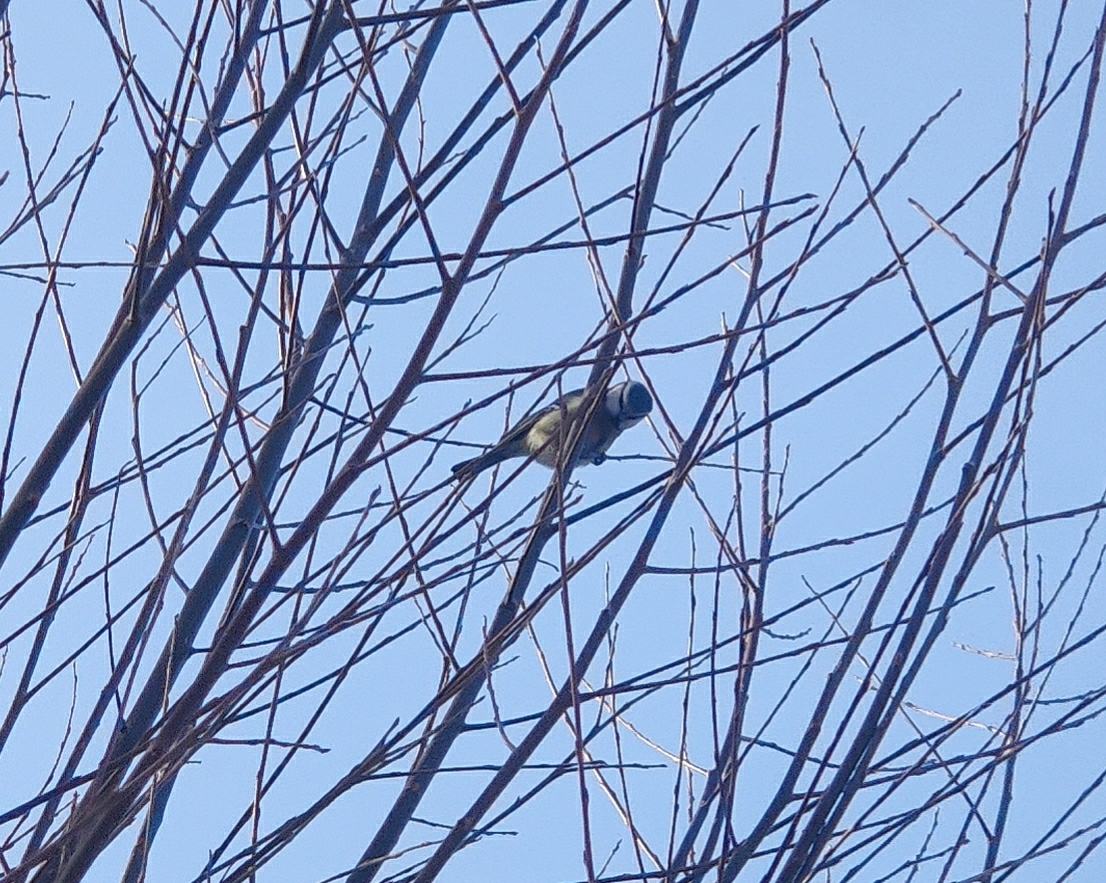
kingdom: Animalia
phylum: Chordata
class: Aves
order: Passeriformes
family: Paridae
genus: Cyanistes
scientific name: Cyanistes caeruleus
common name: Eurasian blue tit
